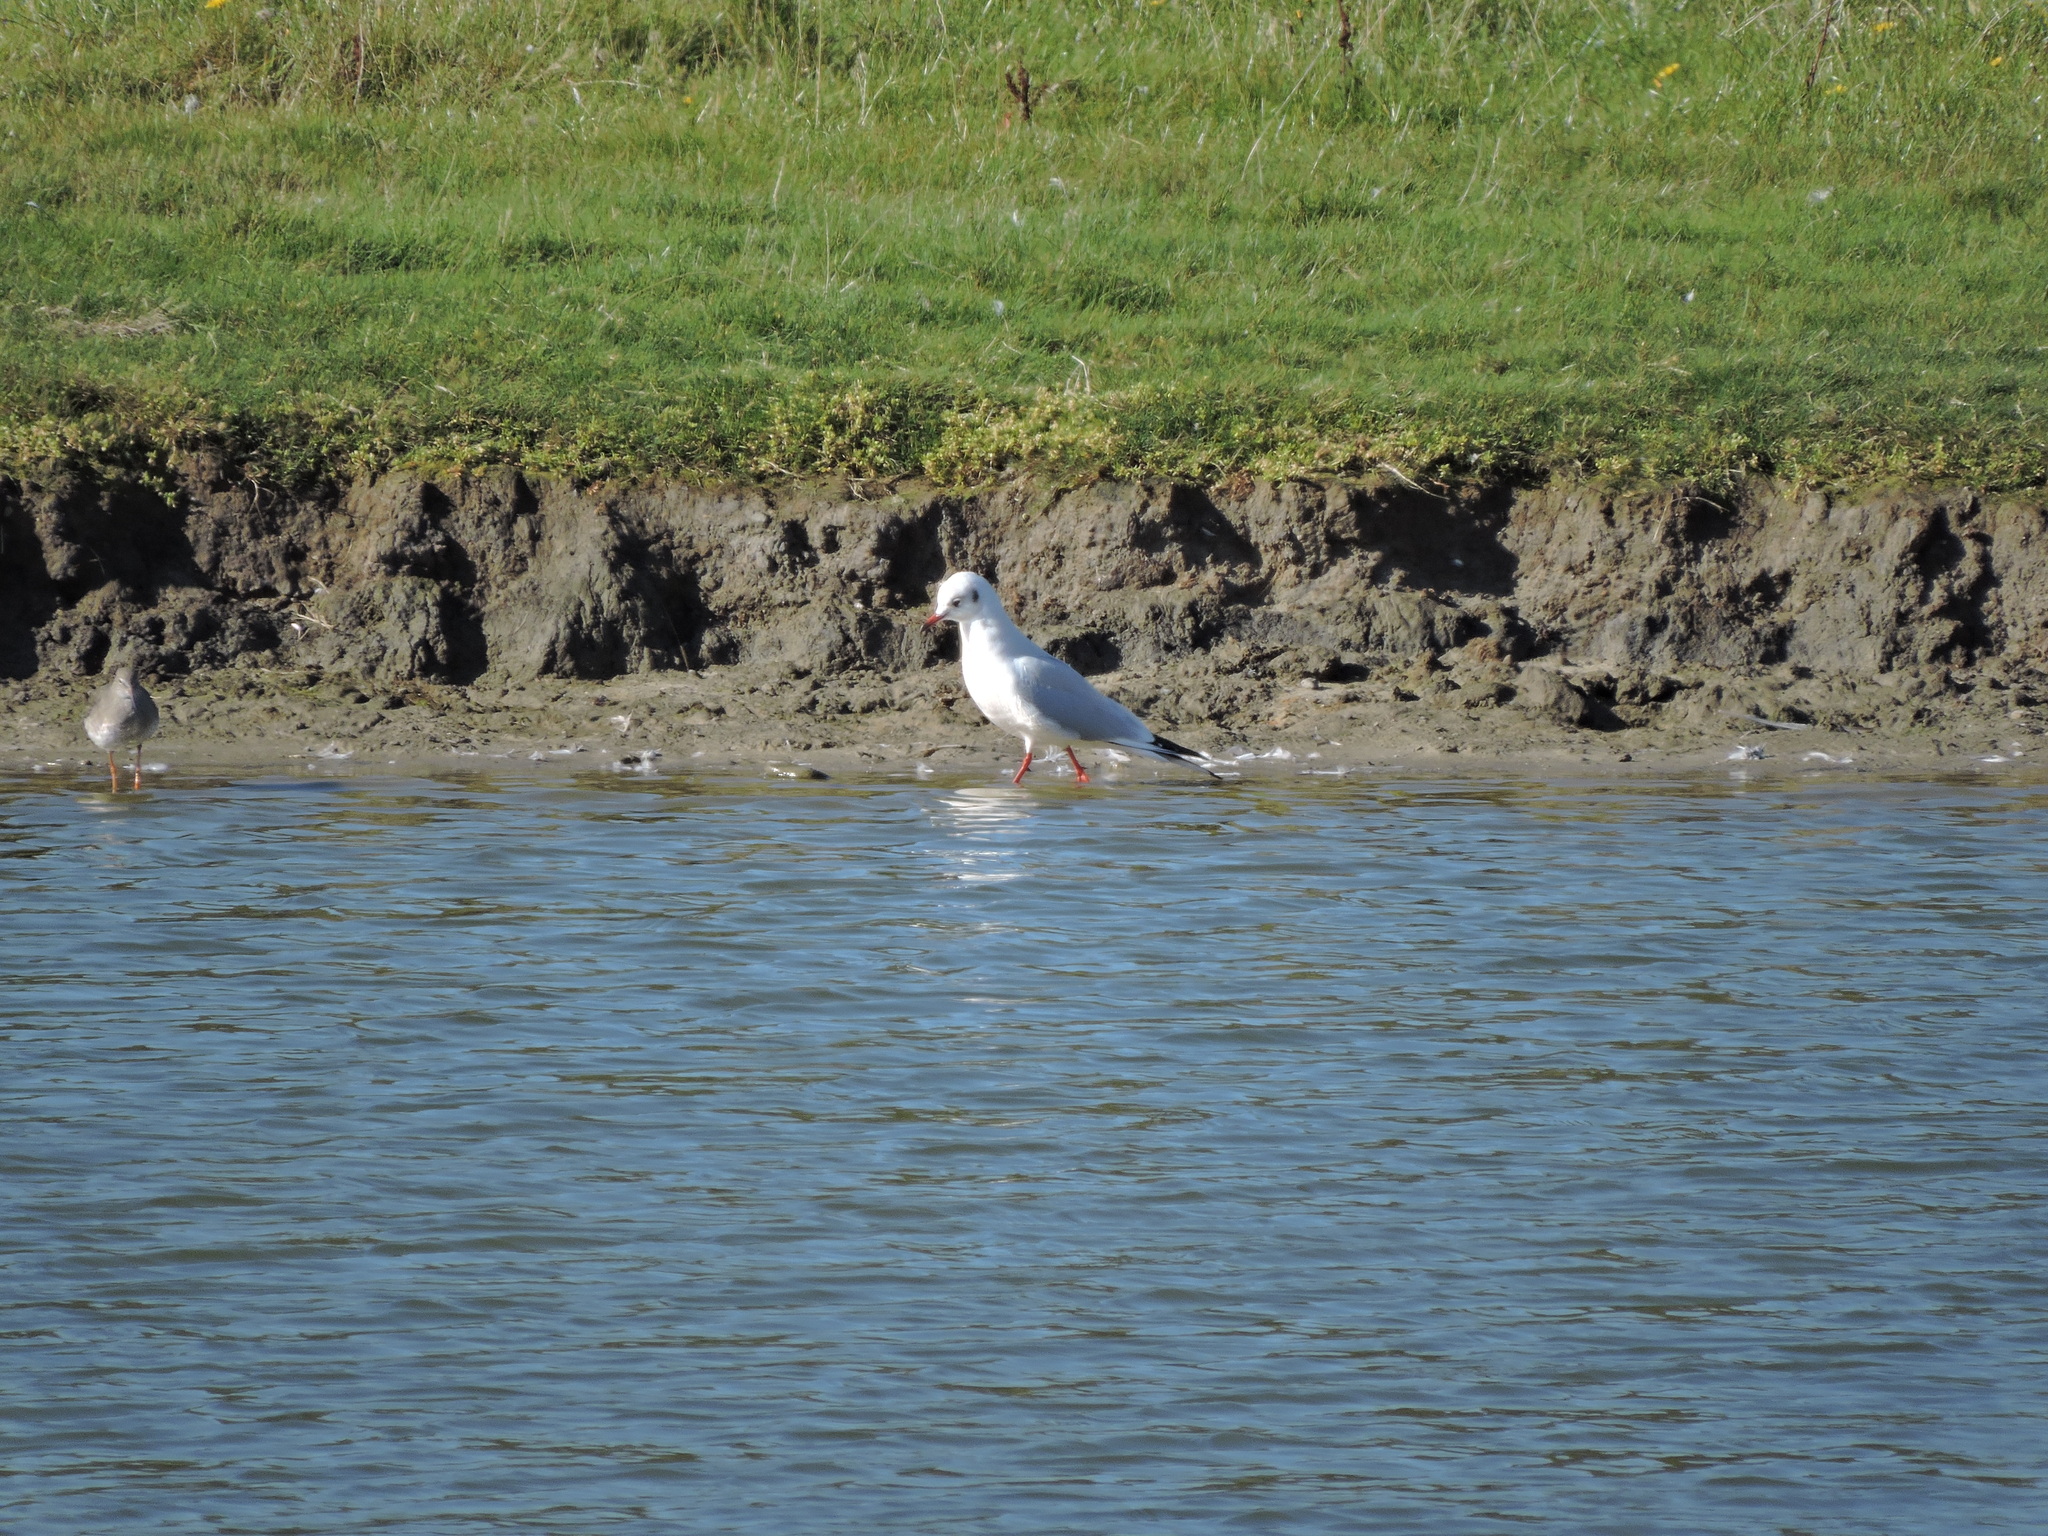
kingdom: Animalia
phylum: Chordata
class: Aves
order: Charadriiformes
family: Laridae
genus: Chroicocephalus
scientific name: Chroicocephalus ridibundus
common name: Black-headed gull
